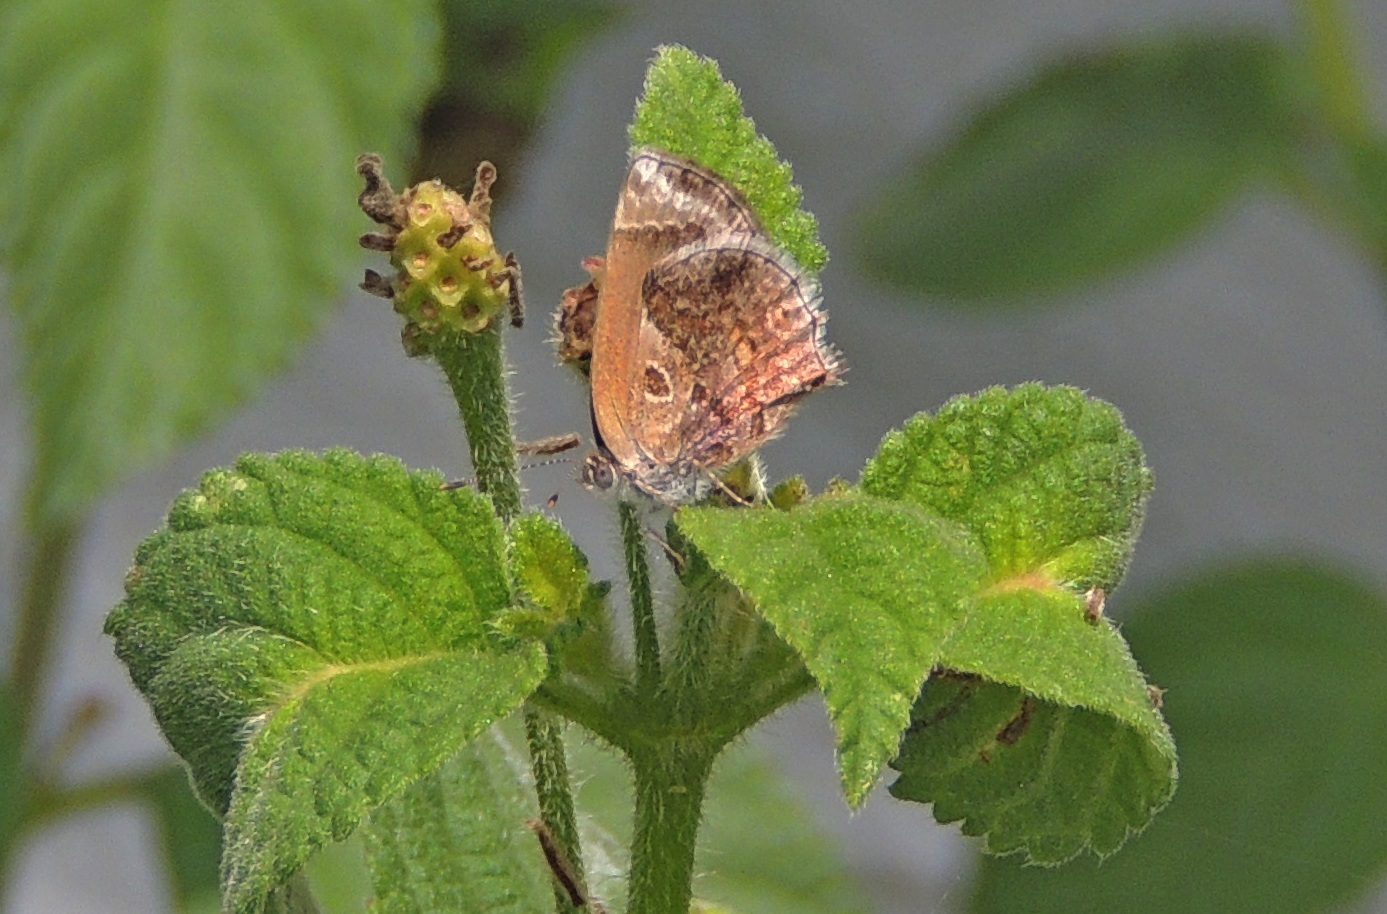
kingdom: Animalia
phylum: Arthropoda
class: Insecta
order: Lepidoptera
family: Lycaenidae
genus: Strymon
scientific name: Strymon bazochii
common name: Lantana scrub-hairstreak
